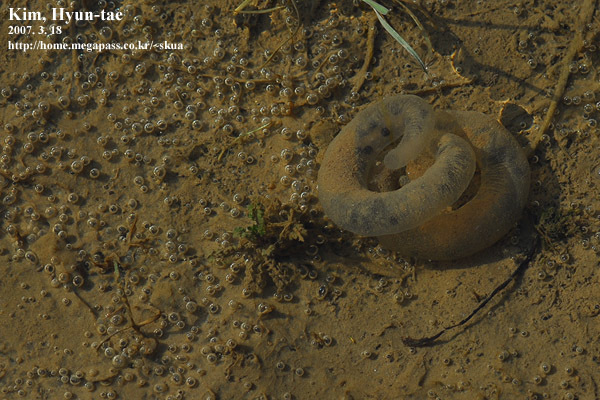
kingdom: Animalia
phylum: Chordata
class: Amphibia
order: Caudata
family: Hynobiidae
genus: Hynobius
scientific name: Hynobius leechii
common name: Gensan salamander
